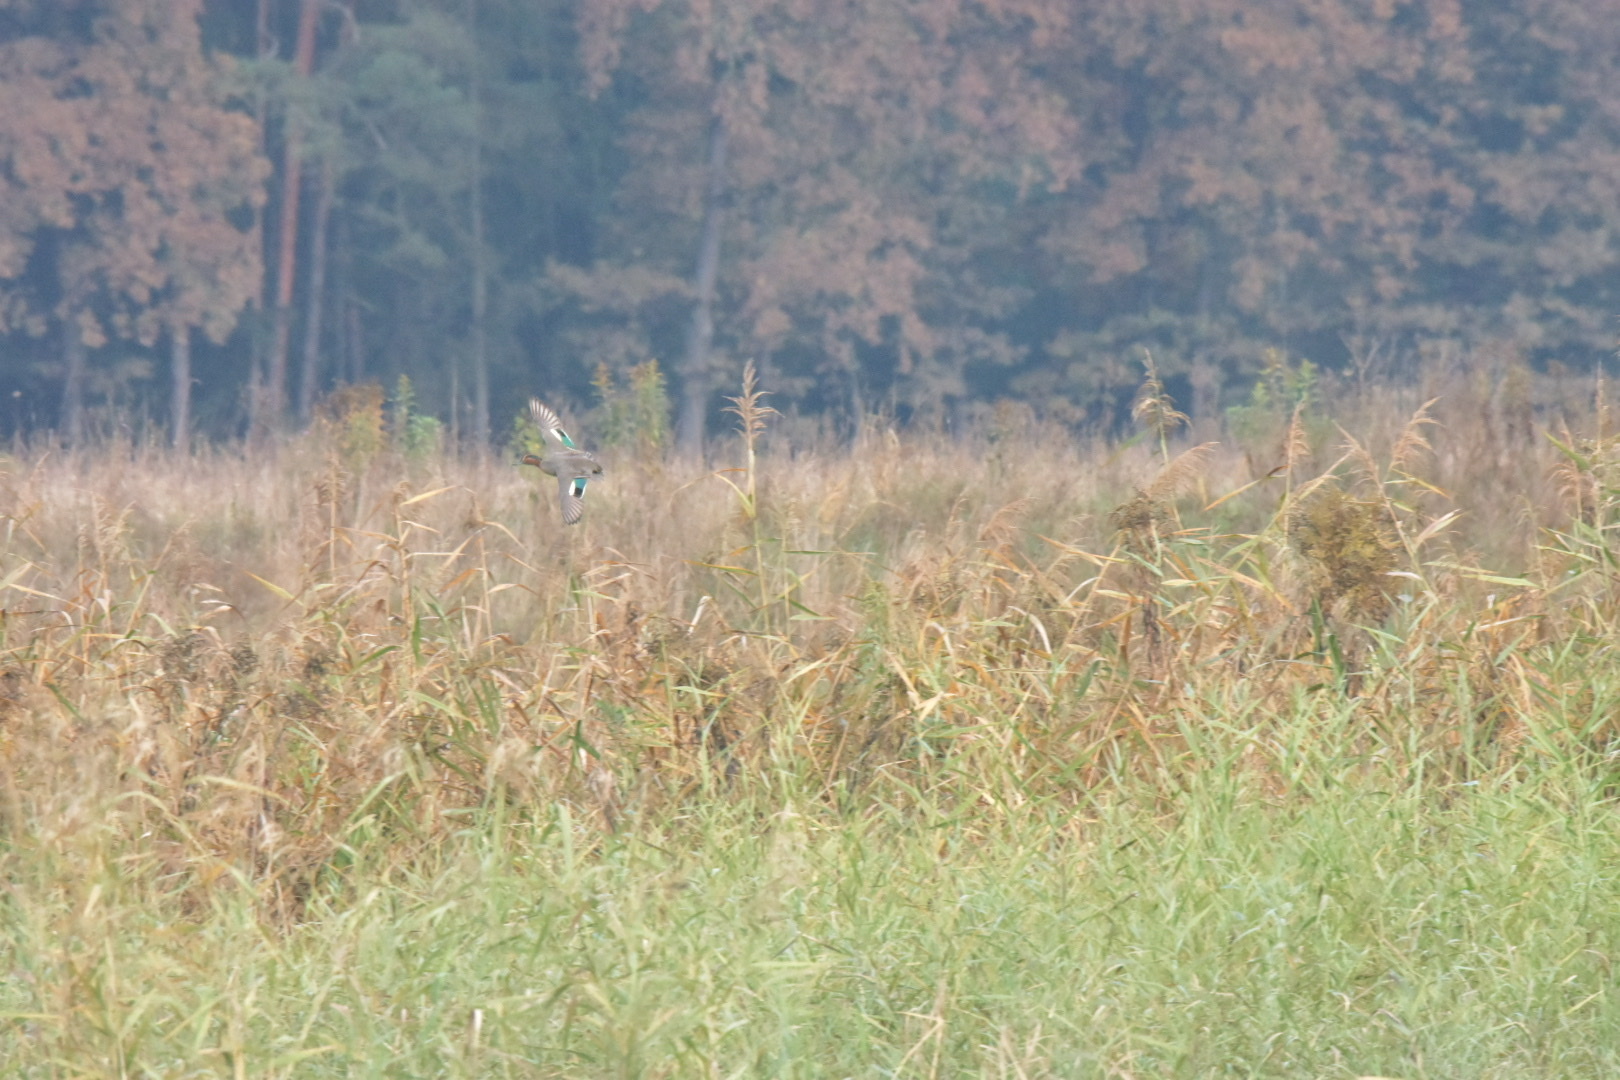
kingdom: Animalia
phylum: Chordata
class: Aves
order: Anseriformes
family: Anatidae
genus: Anas
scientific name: Anas crecca
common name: Eurasian teal
